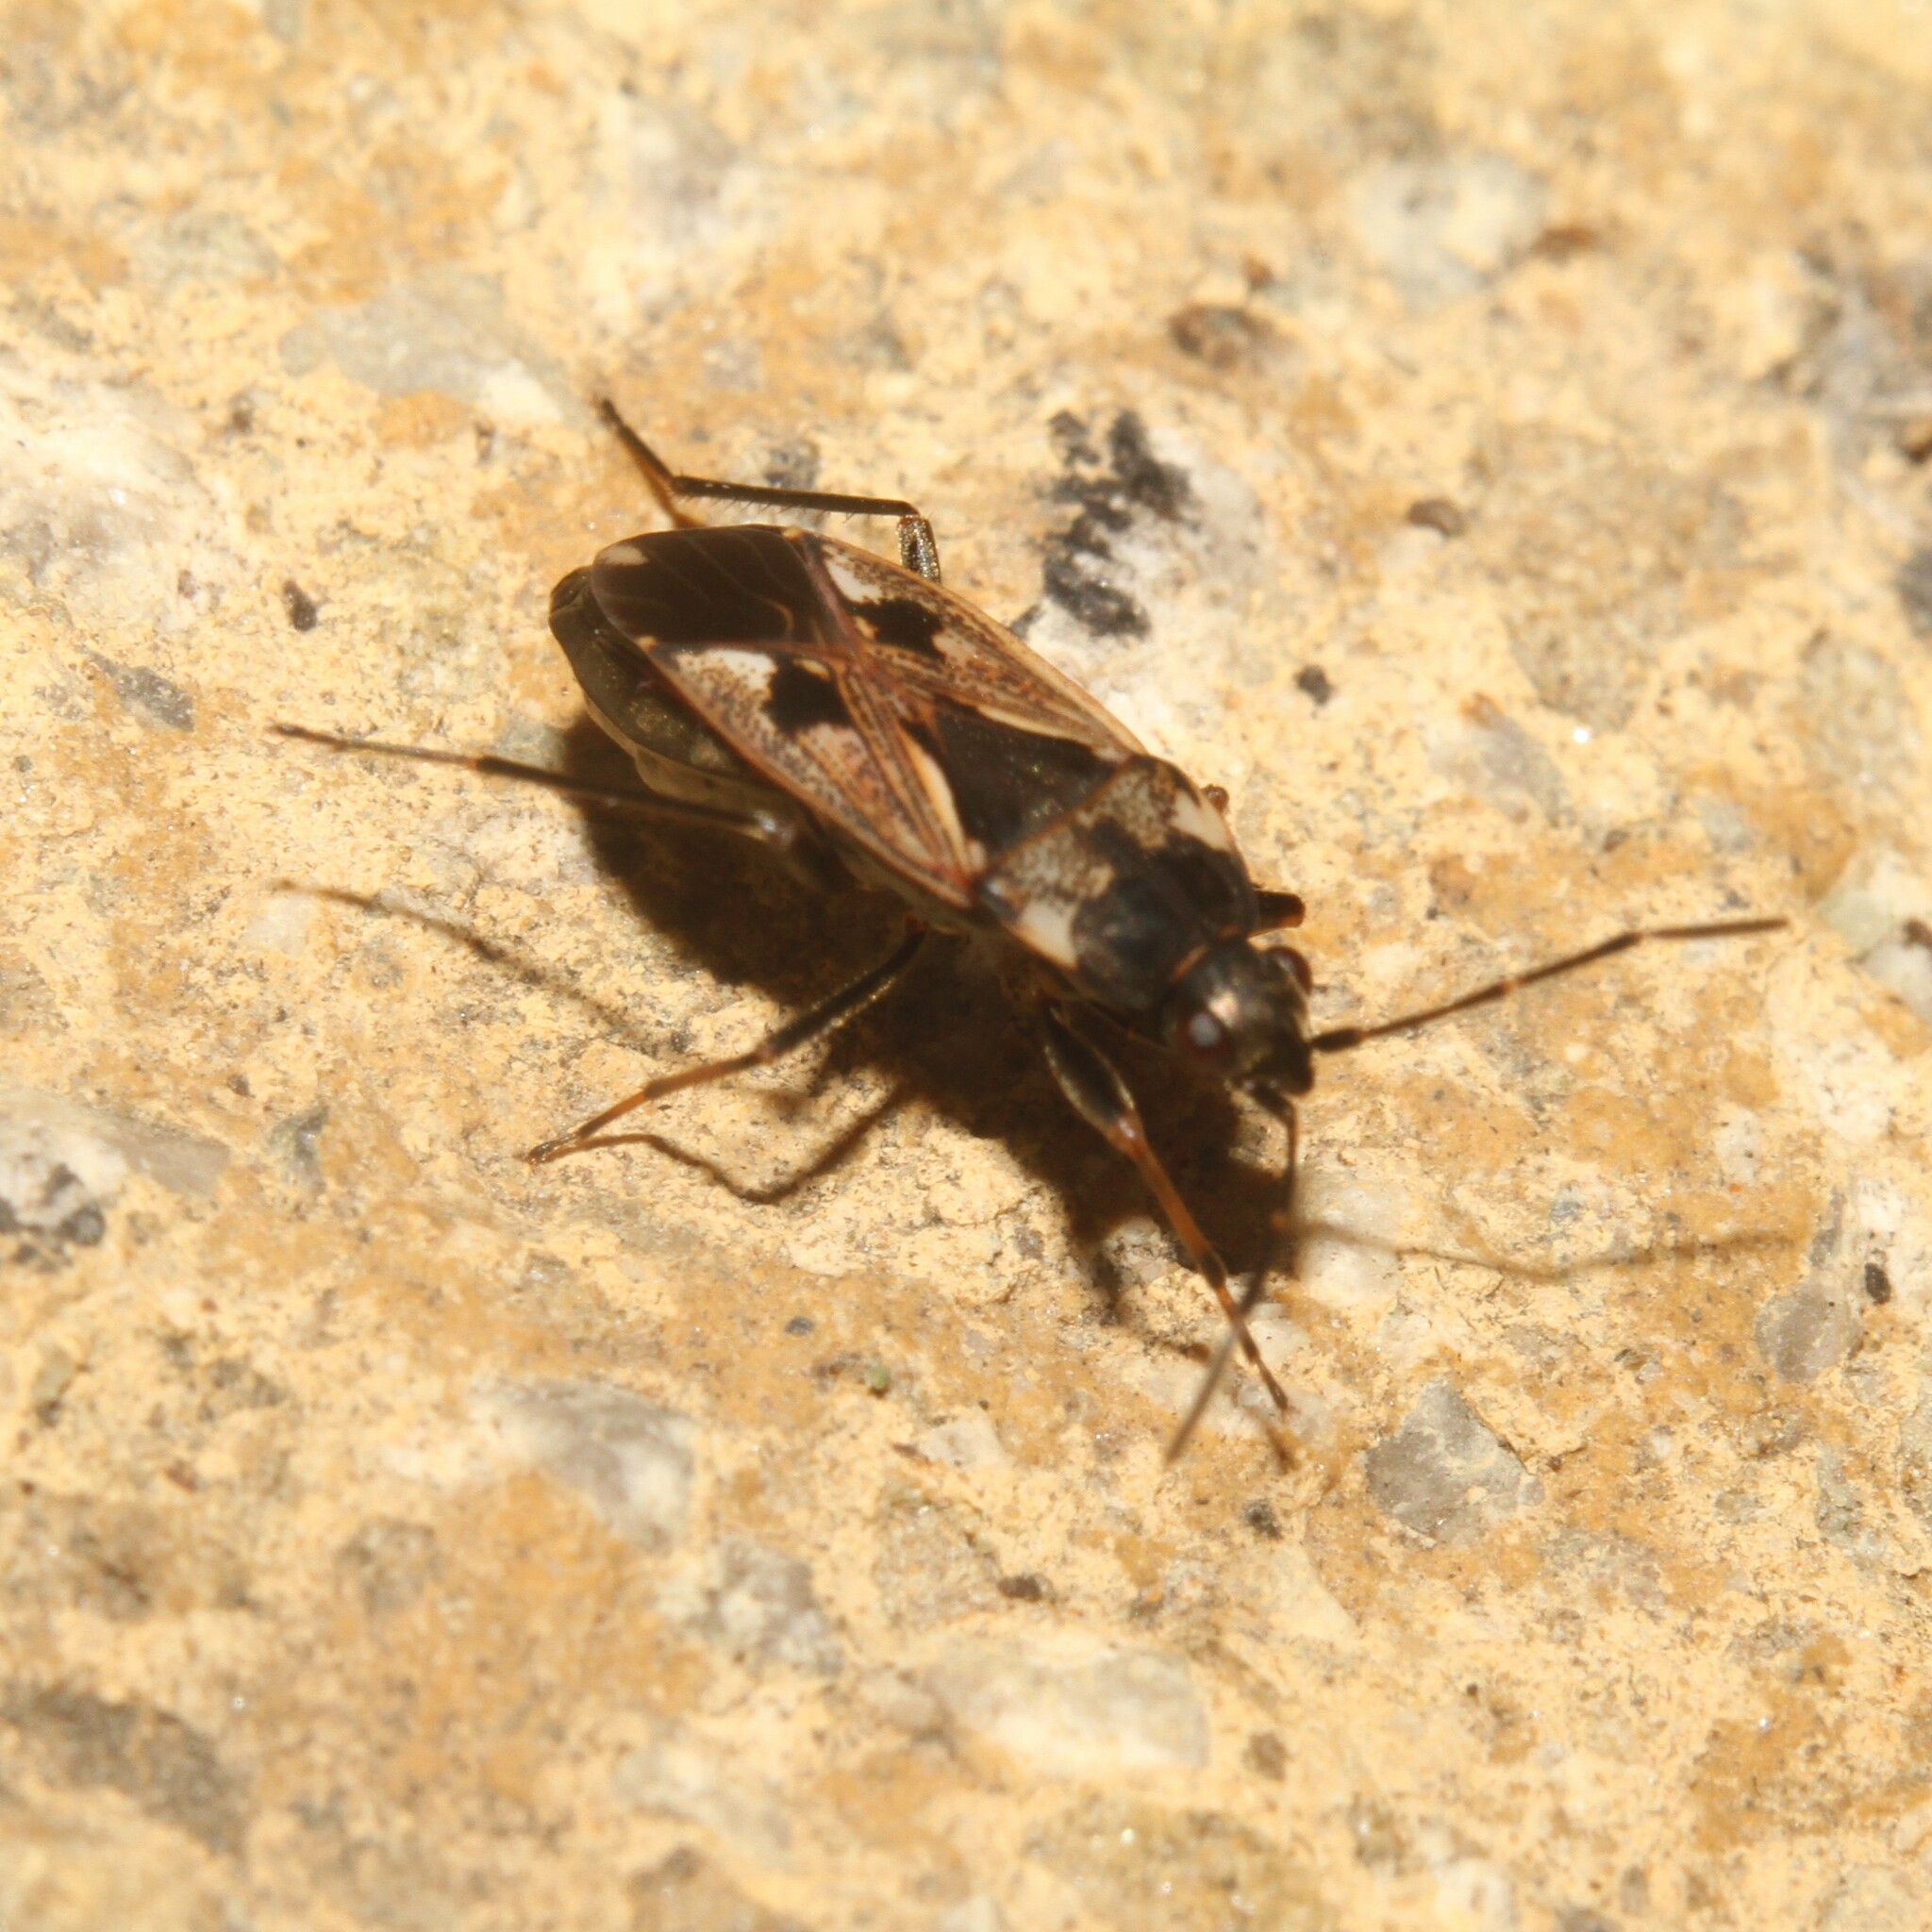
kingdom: Animalia
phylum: Arthropoda
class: Insecta
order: Hemiptera
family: Rhyparochromidae
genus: Rhyparochromus
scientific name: Rhyparochromus vulgaris
